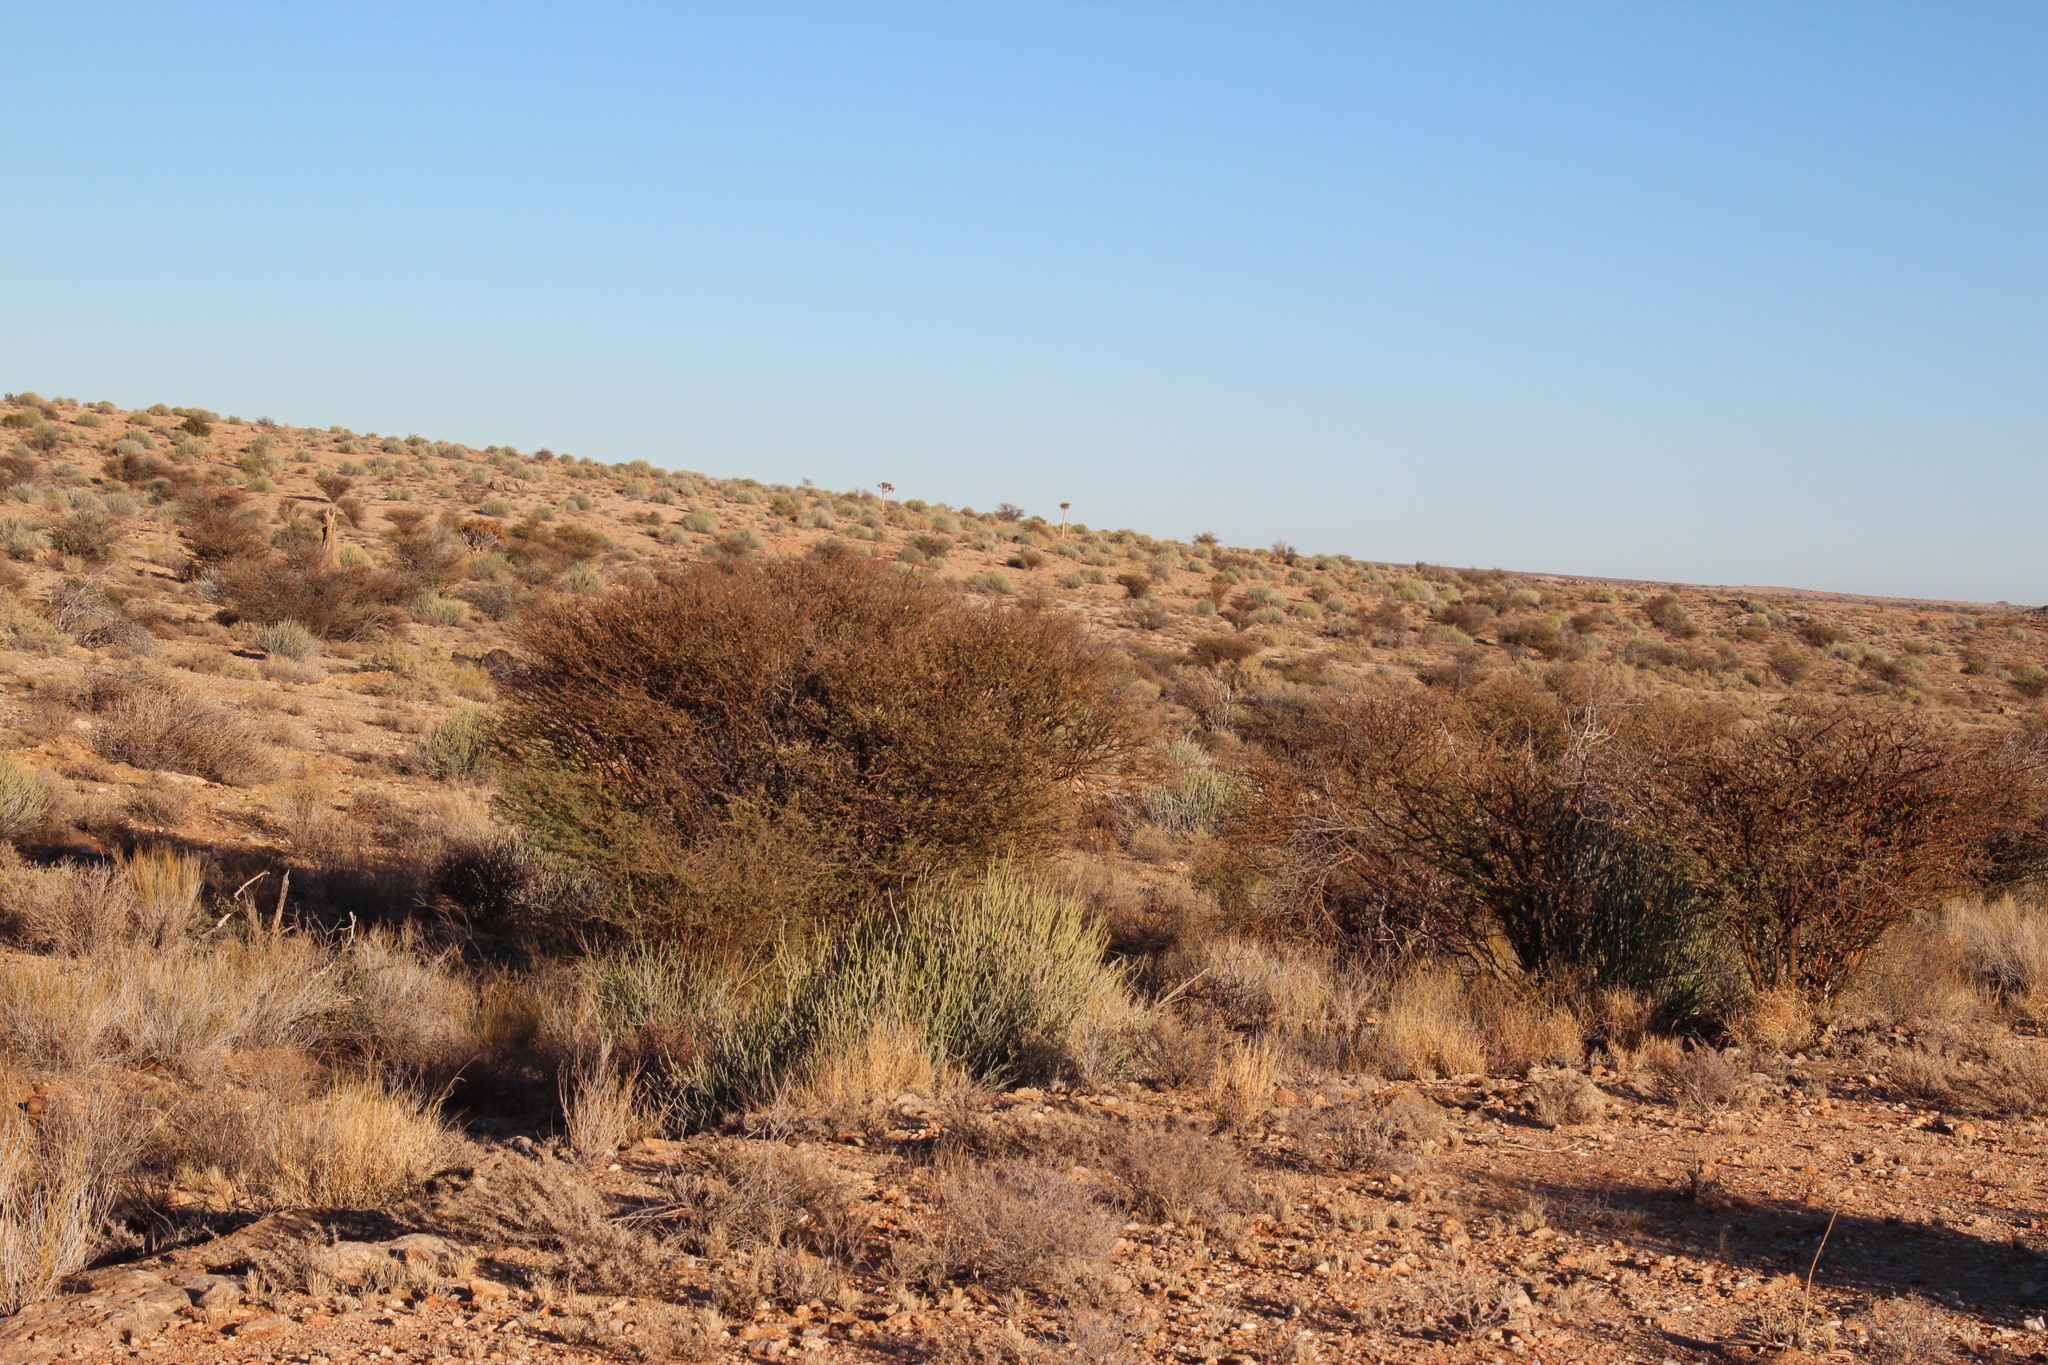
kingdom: Plantae
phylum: Tracheophyta
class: Magnoliopsida
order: Fabales
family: Fabaceae
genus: Senegalia
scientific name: Senegalia mellifera
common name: Hookthorn
